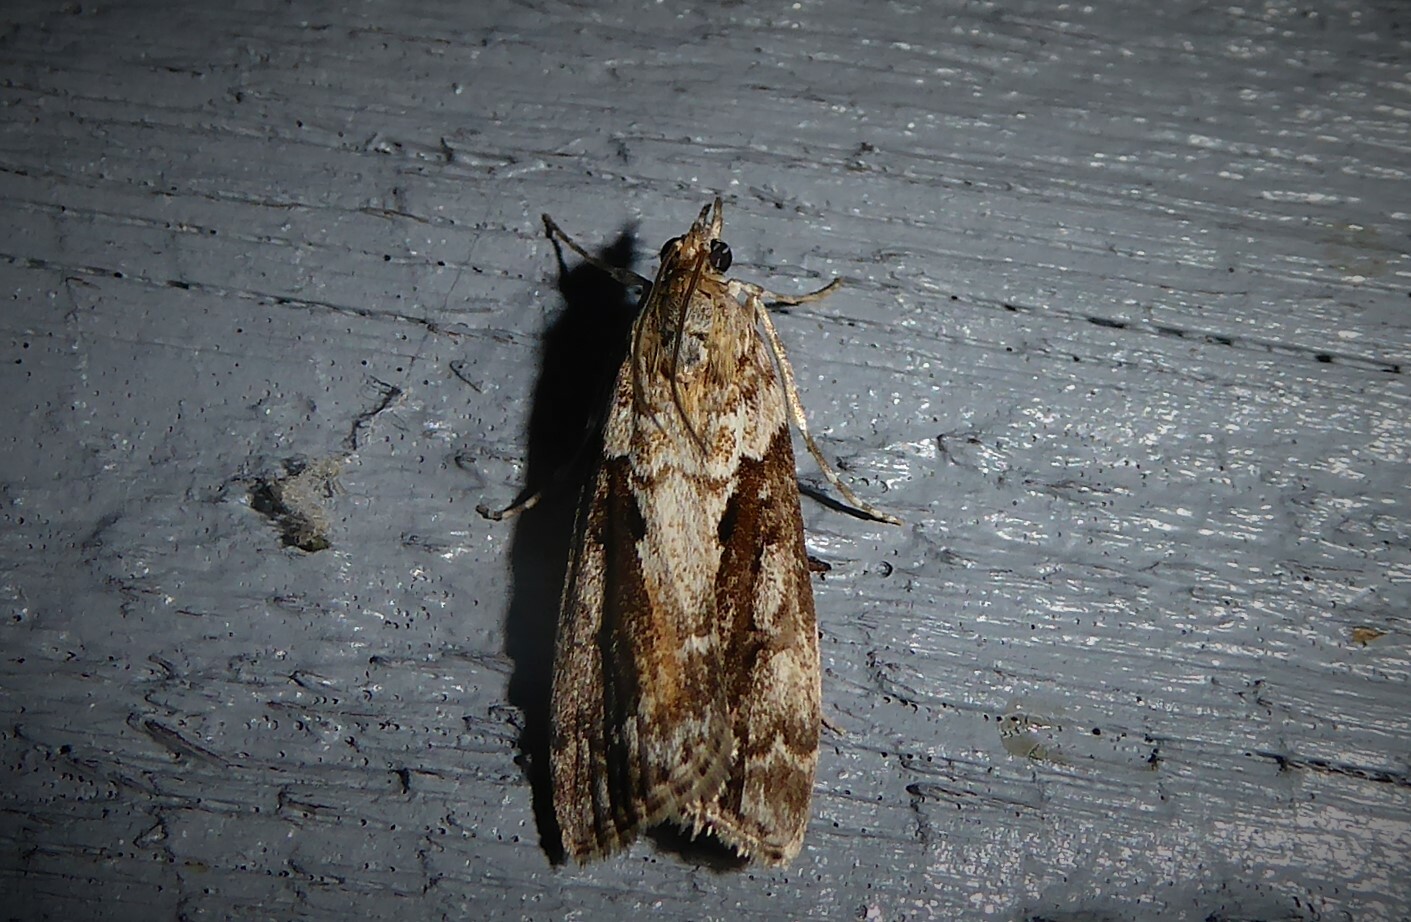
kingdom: Animalia
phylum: Arthropoda
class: Insecta
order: Lepidoptera
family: Crambidae
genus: Eudonia
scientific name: Eudonia submarginalis
